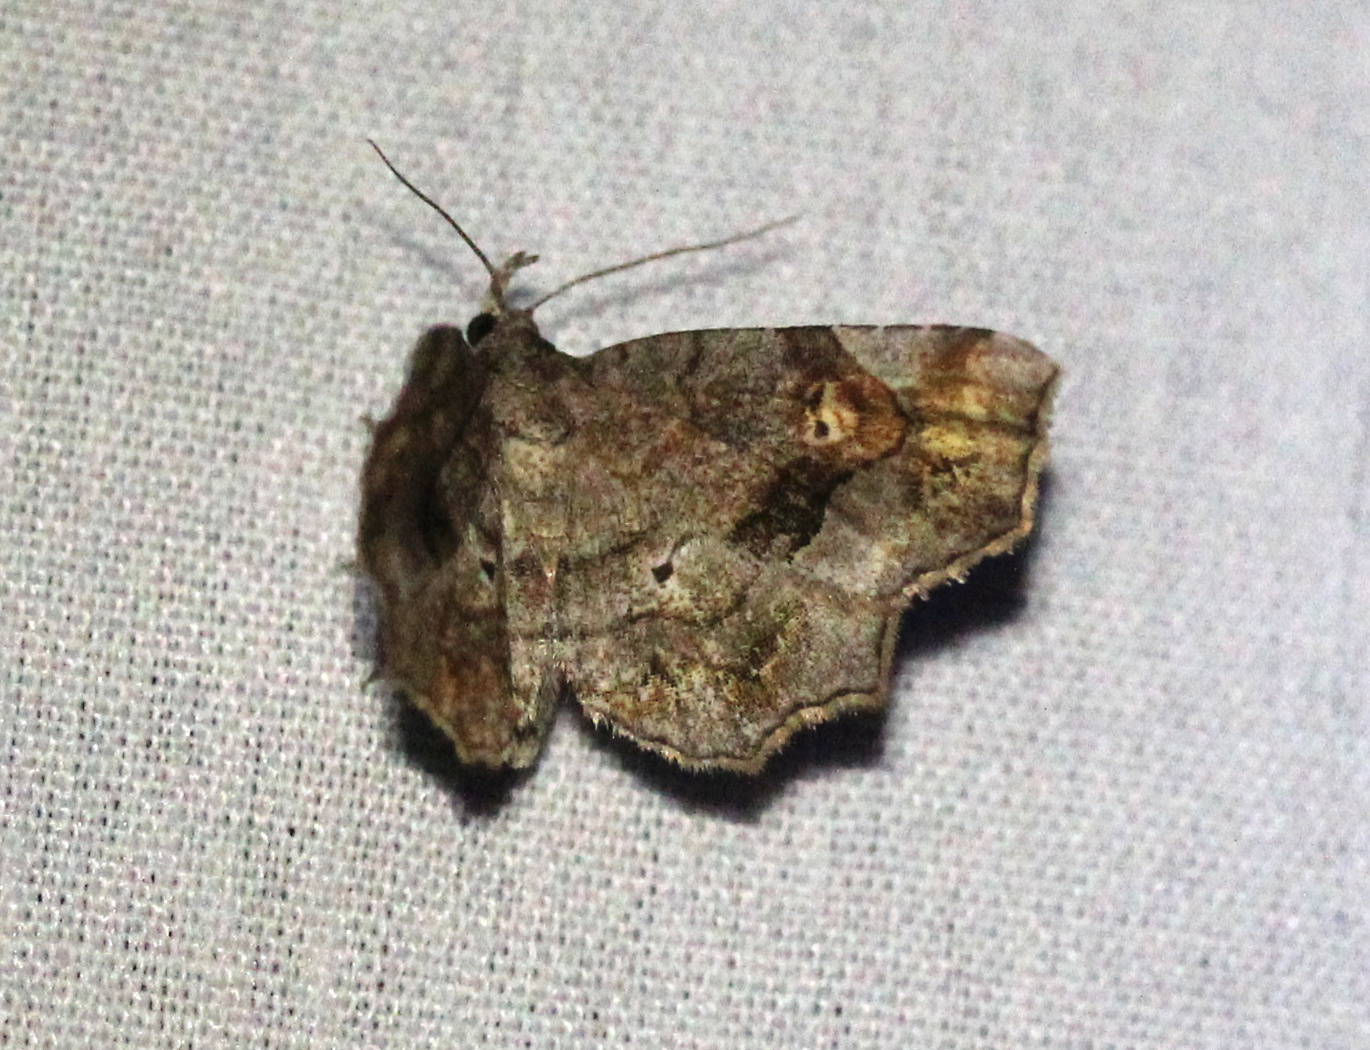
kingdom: Animalia
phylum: Arthropoda
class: Insecta
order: Lepidoptera
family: Erebidae
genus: Pangrapta
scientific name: Pangrapta decoralis
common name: Decorated owlet
